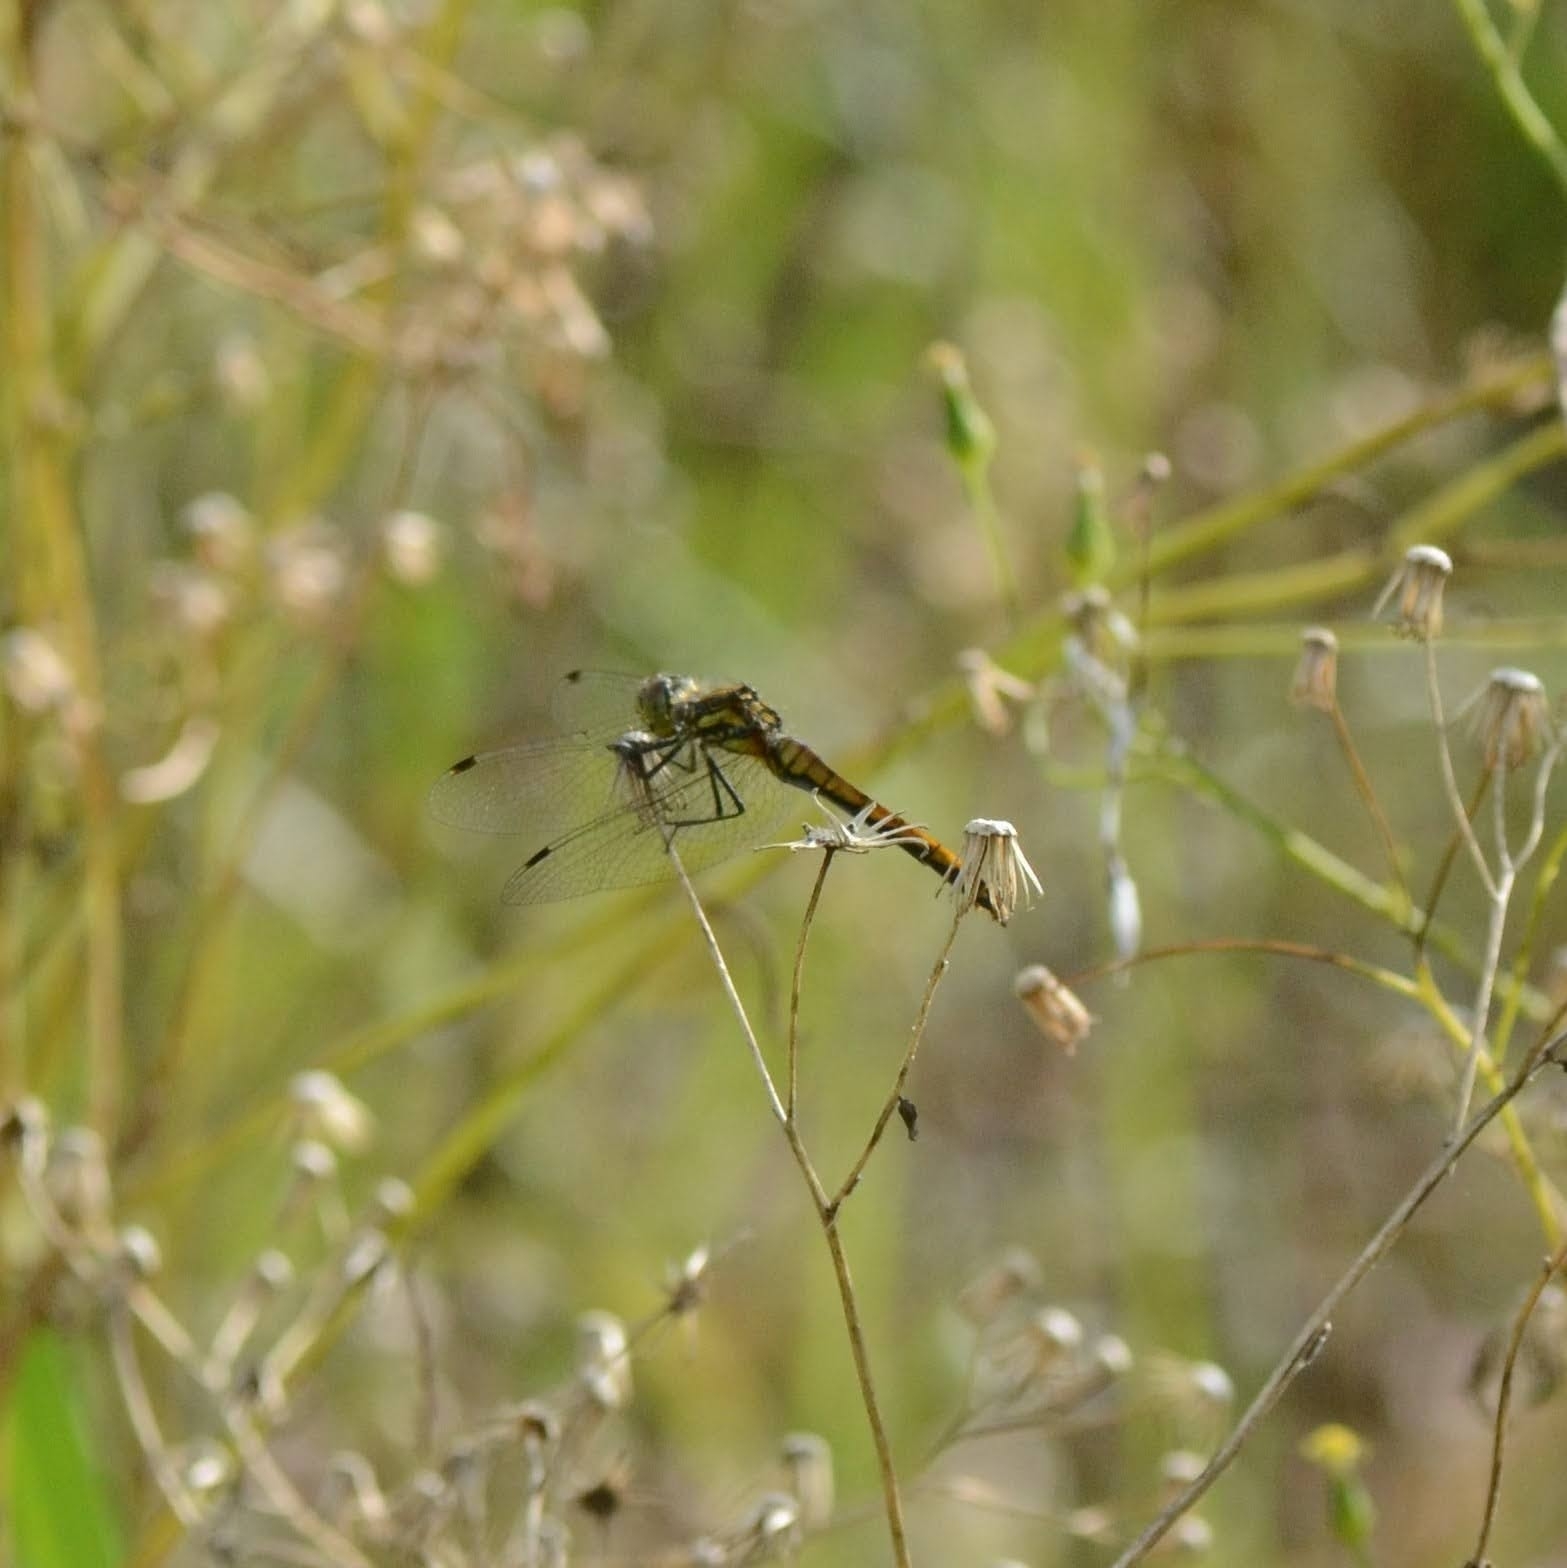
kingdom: Animalia
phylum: Arthropoda
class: Insecta
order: Odonata
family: Libellulidae
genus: Sympetrum
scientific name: Sympetrum danae
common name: Black darter
